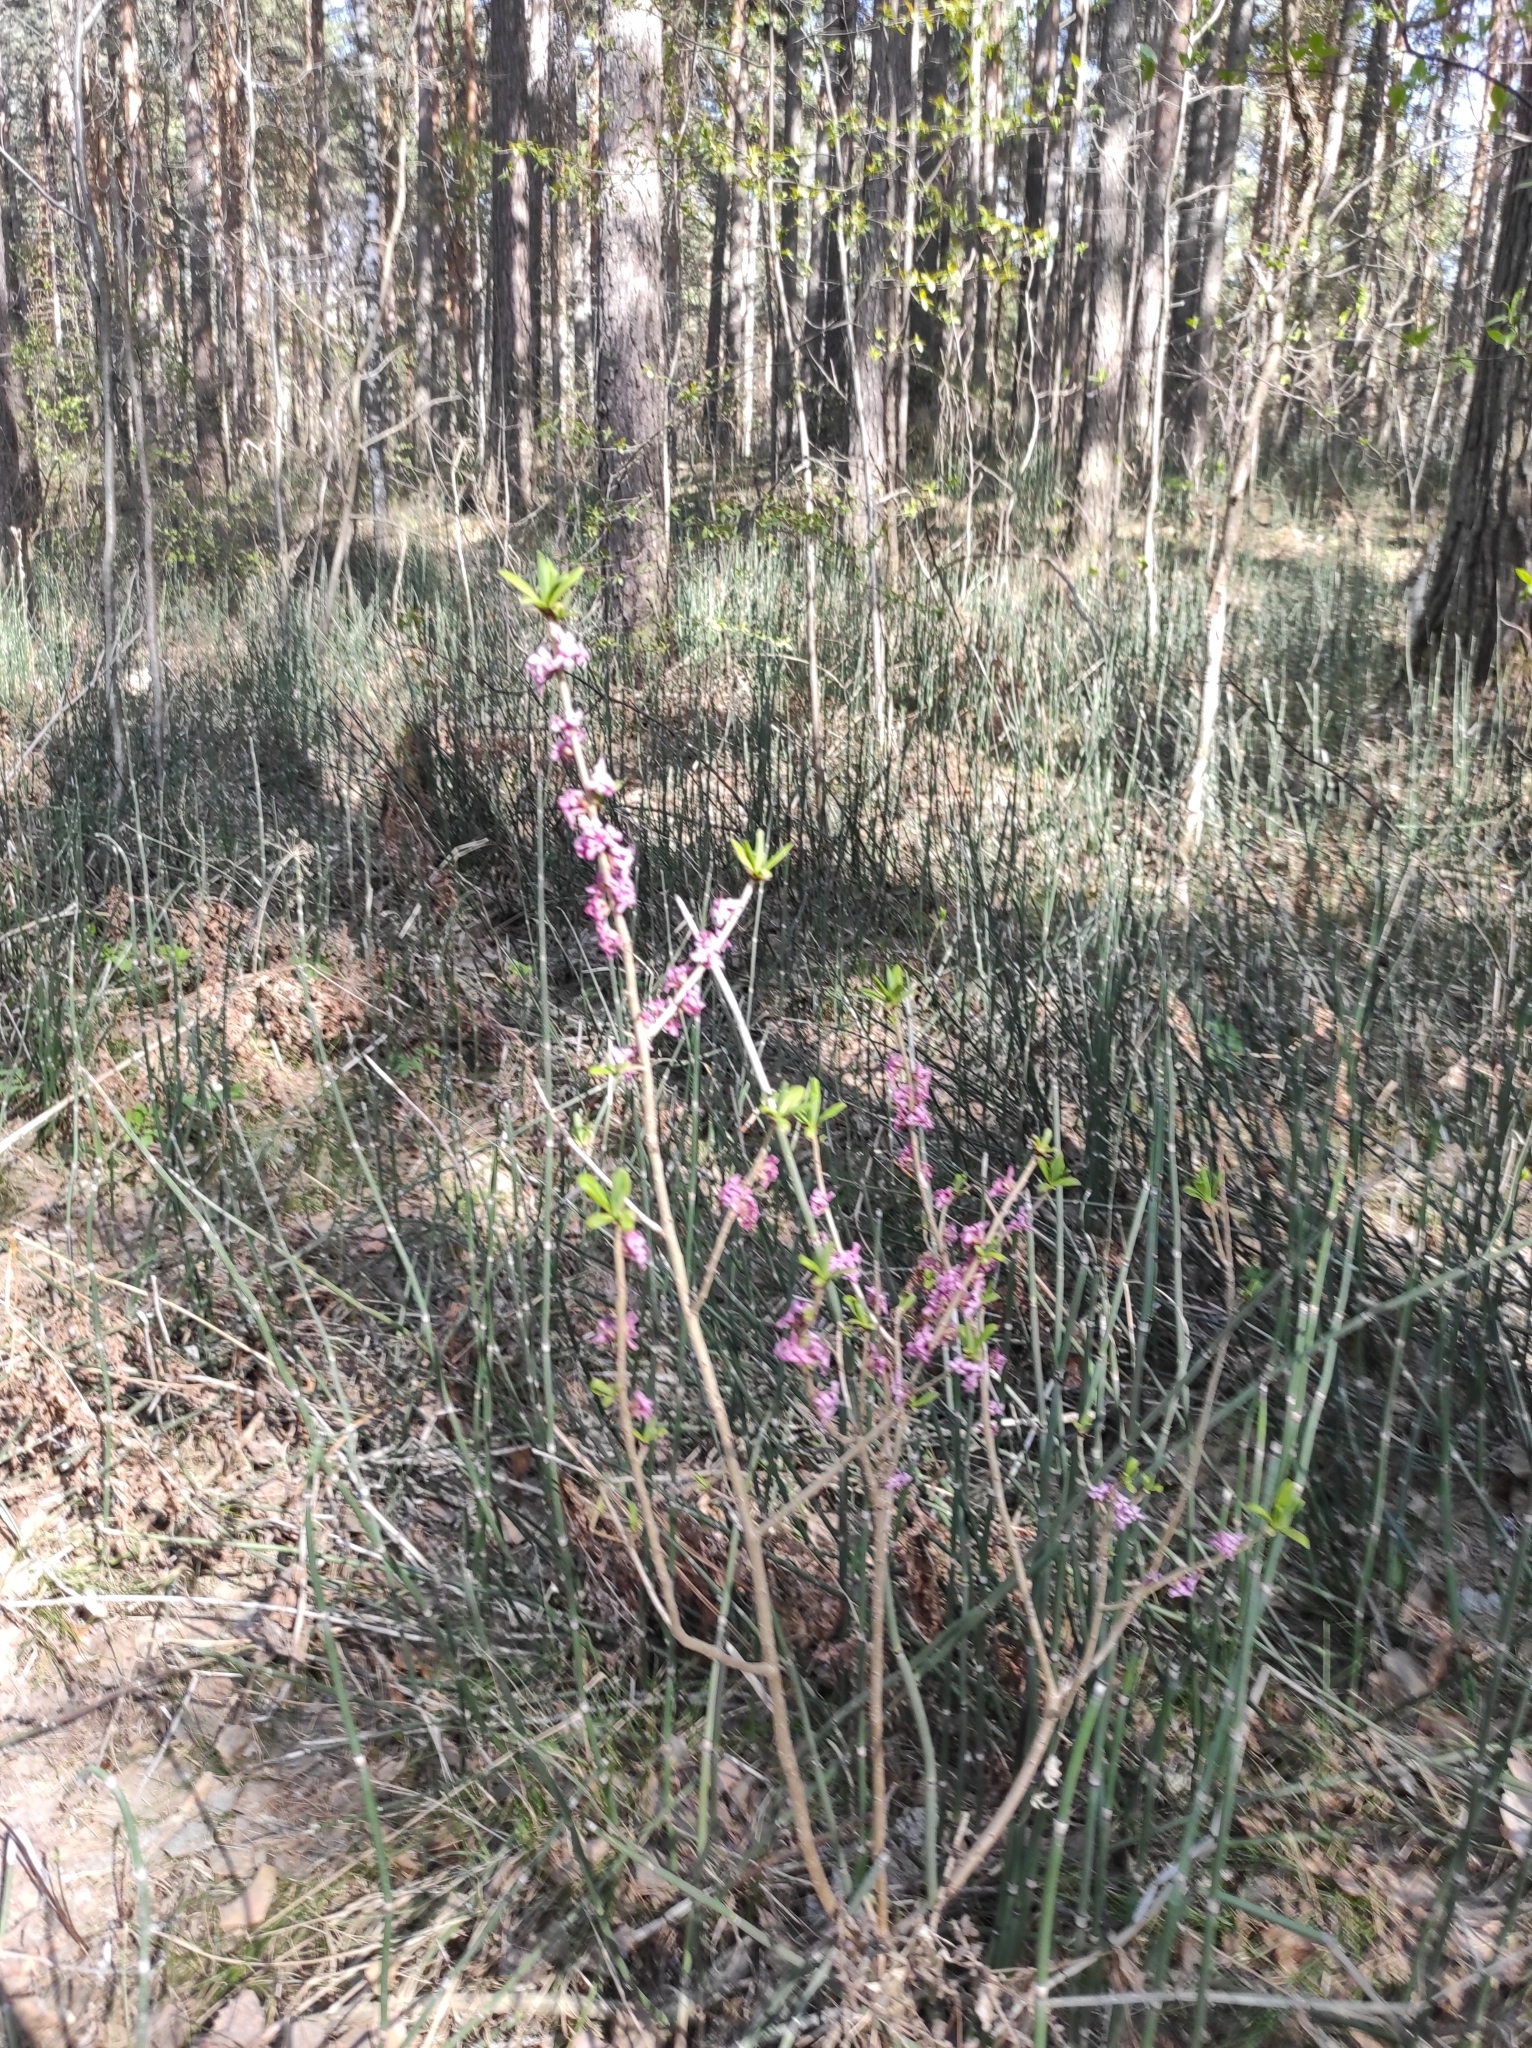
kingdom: Plantae
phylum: Tracheophyta
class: Polypodiopsida
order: Equisetales
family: Equisetaceae
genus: Equisetum
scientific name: Equisetum hyemale
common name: Rough horsetail
